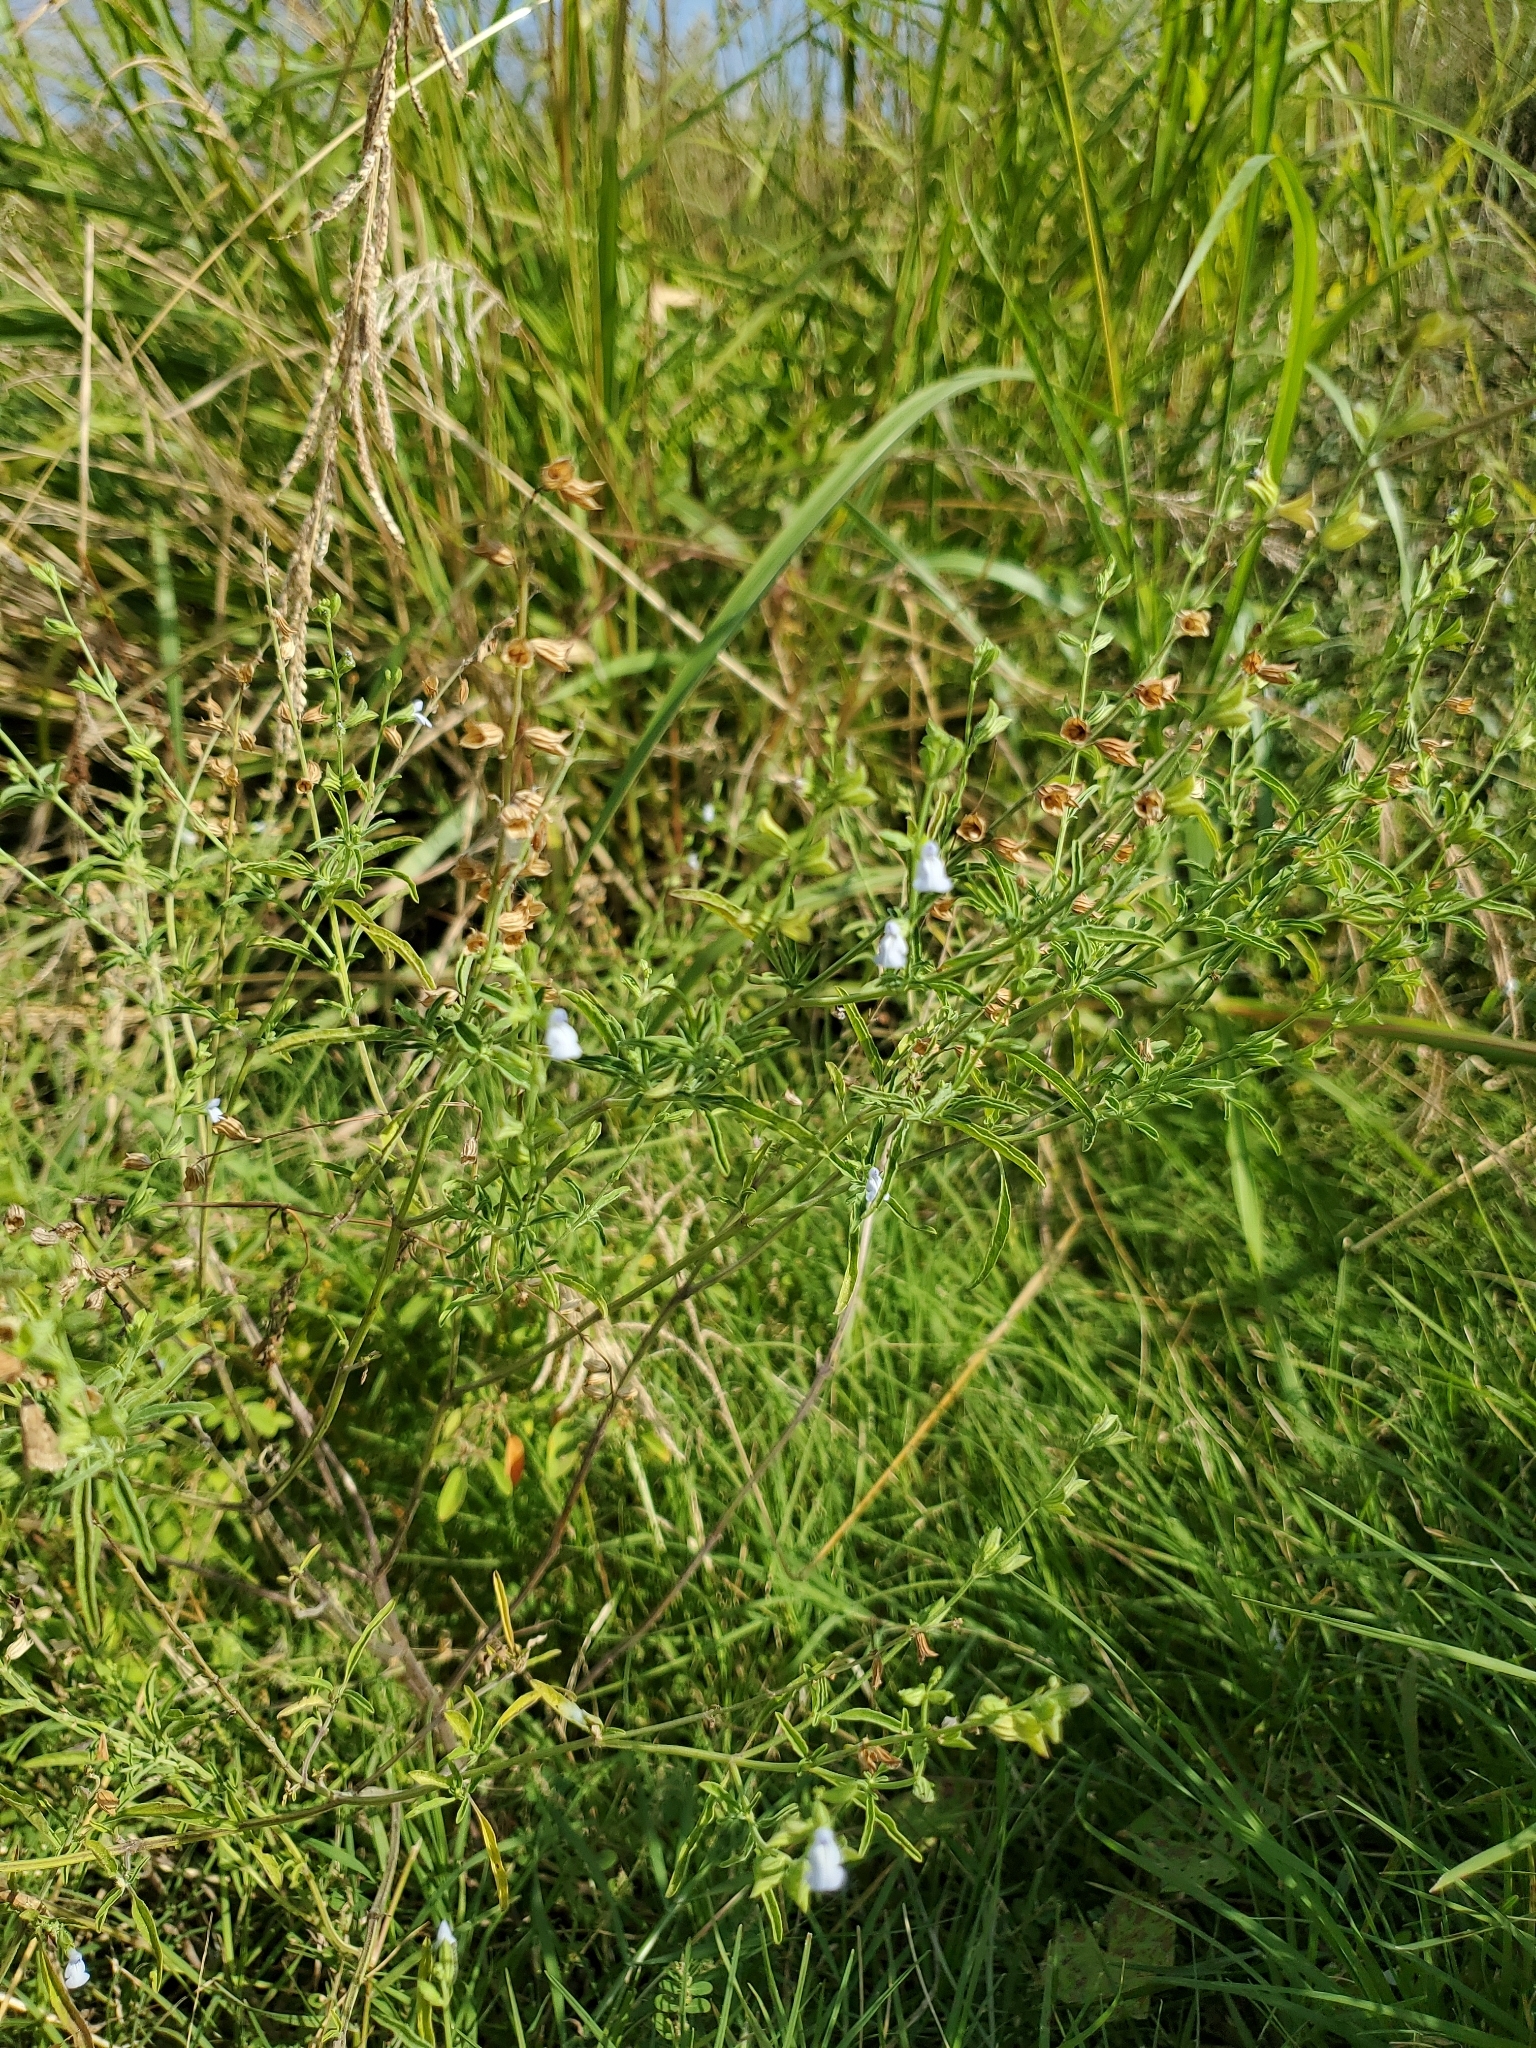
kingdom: Plantae
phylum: Tracheophyta
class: Magnoliopsida
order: Lamiales
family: Lamiaceae
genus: Salvia
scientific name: Salvia reflexa
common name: Mintweed
